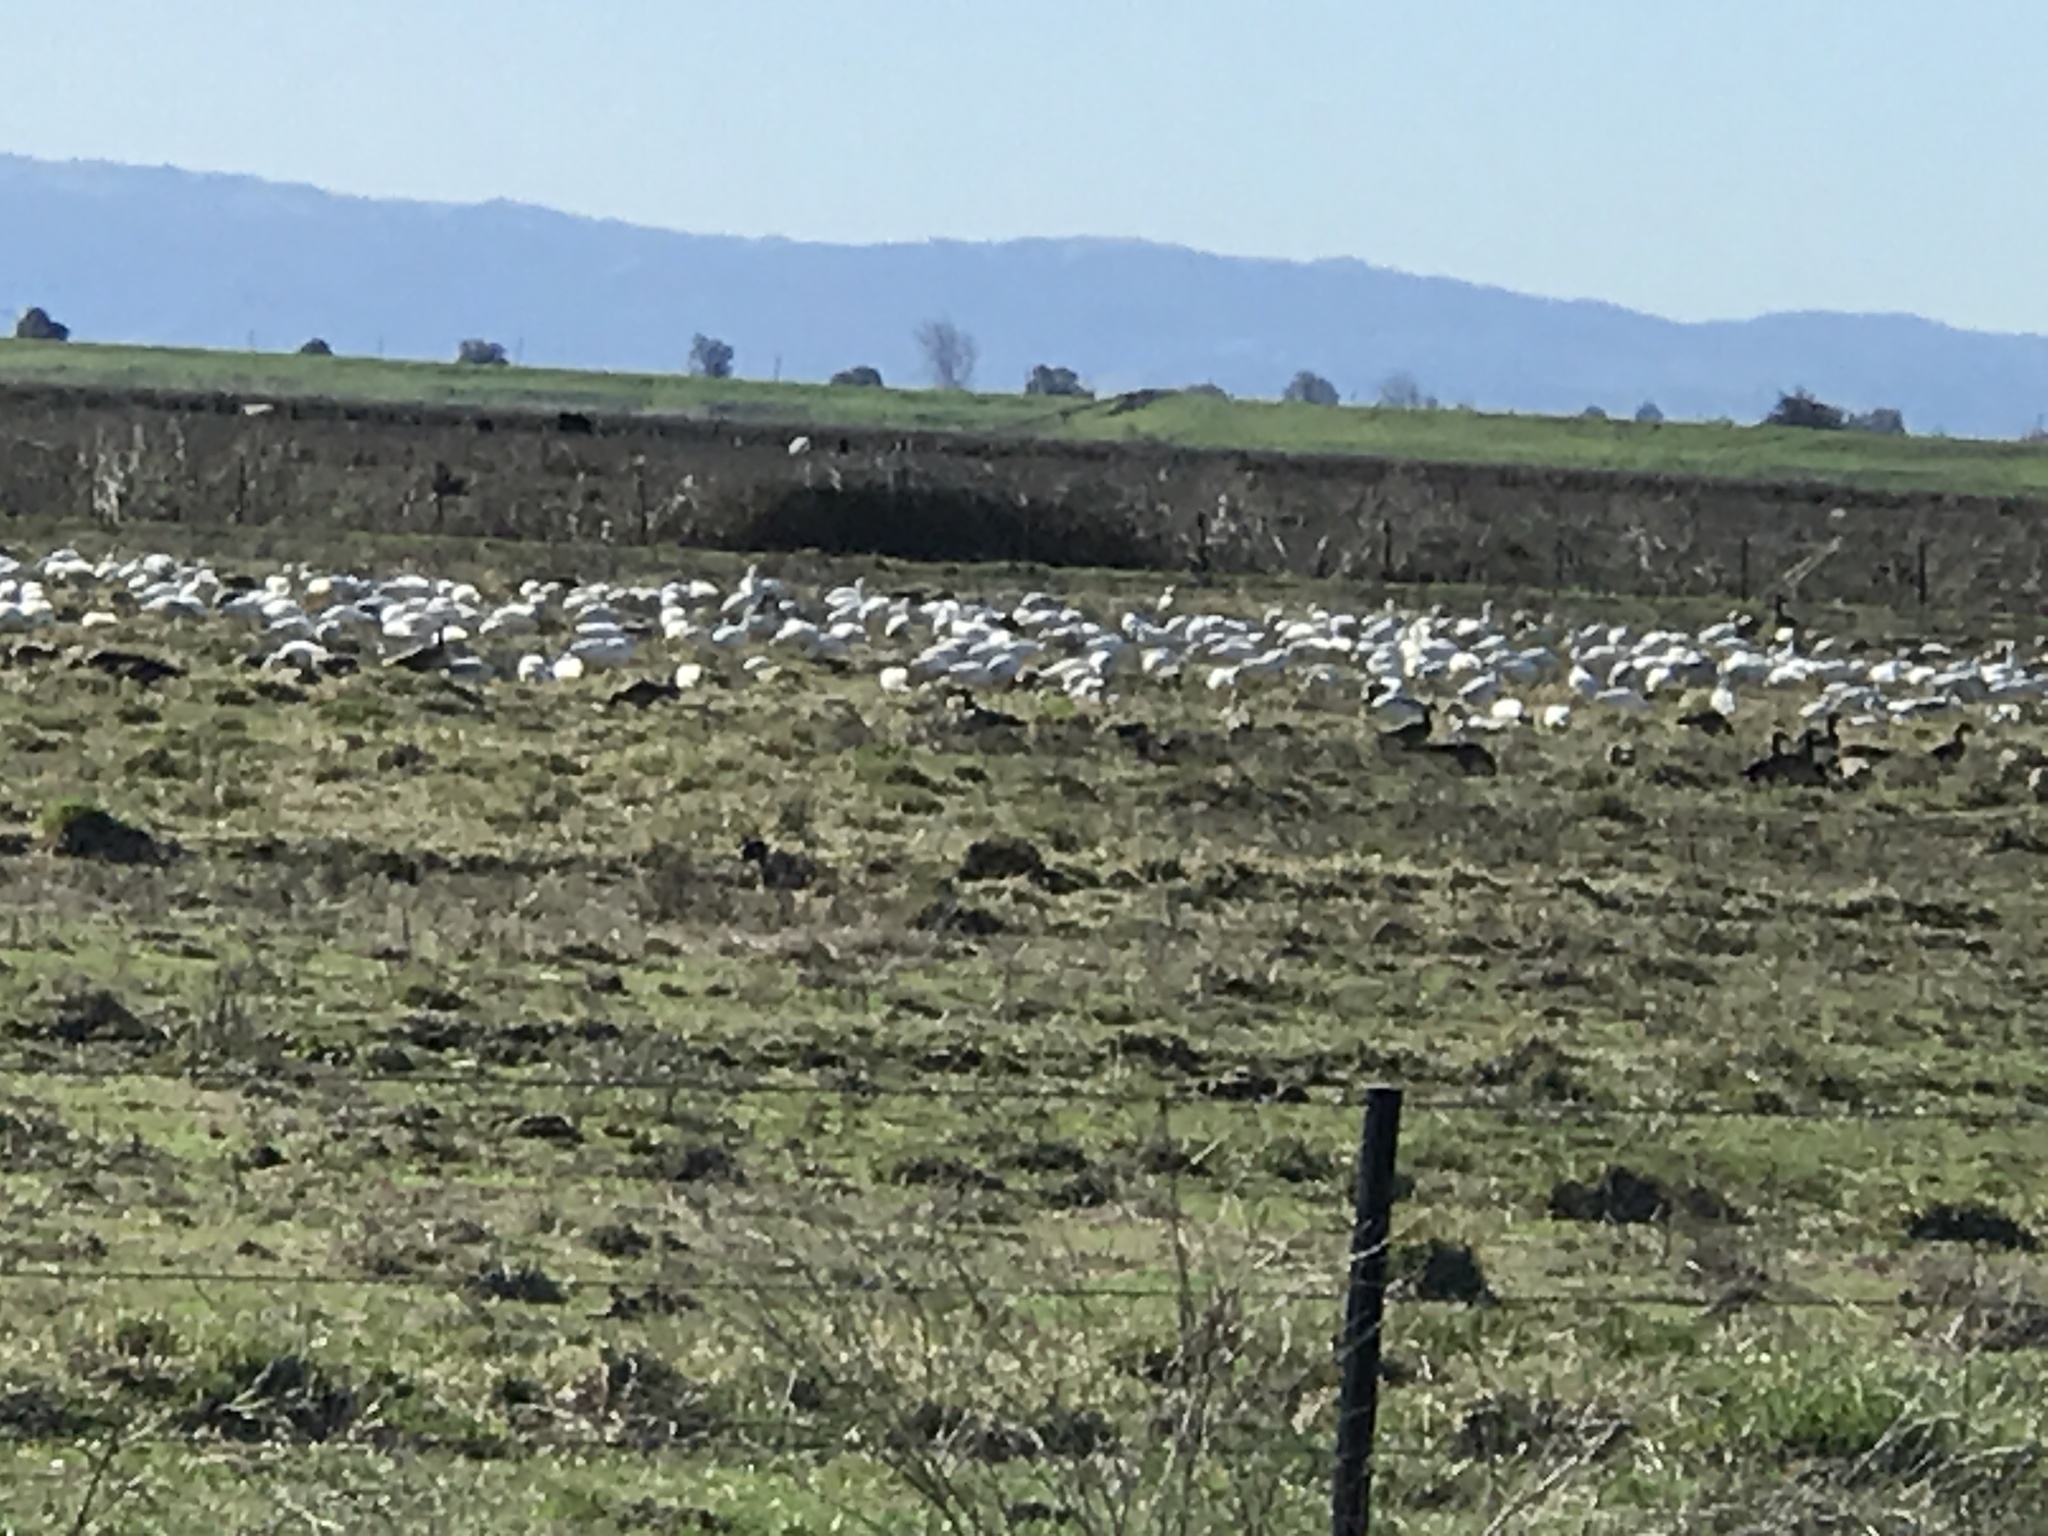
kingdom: Animalia
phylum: Chordata
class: Aves
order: Anseriformes
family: Anatidae
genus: Anser
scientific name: Anser caerulescens
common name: Snow goose
